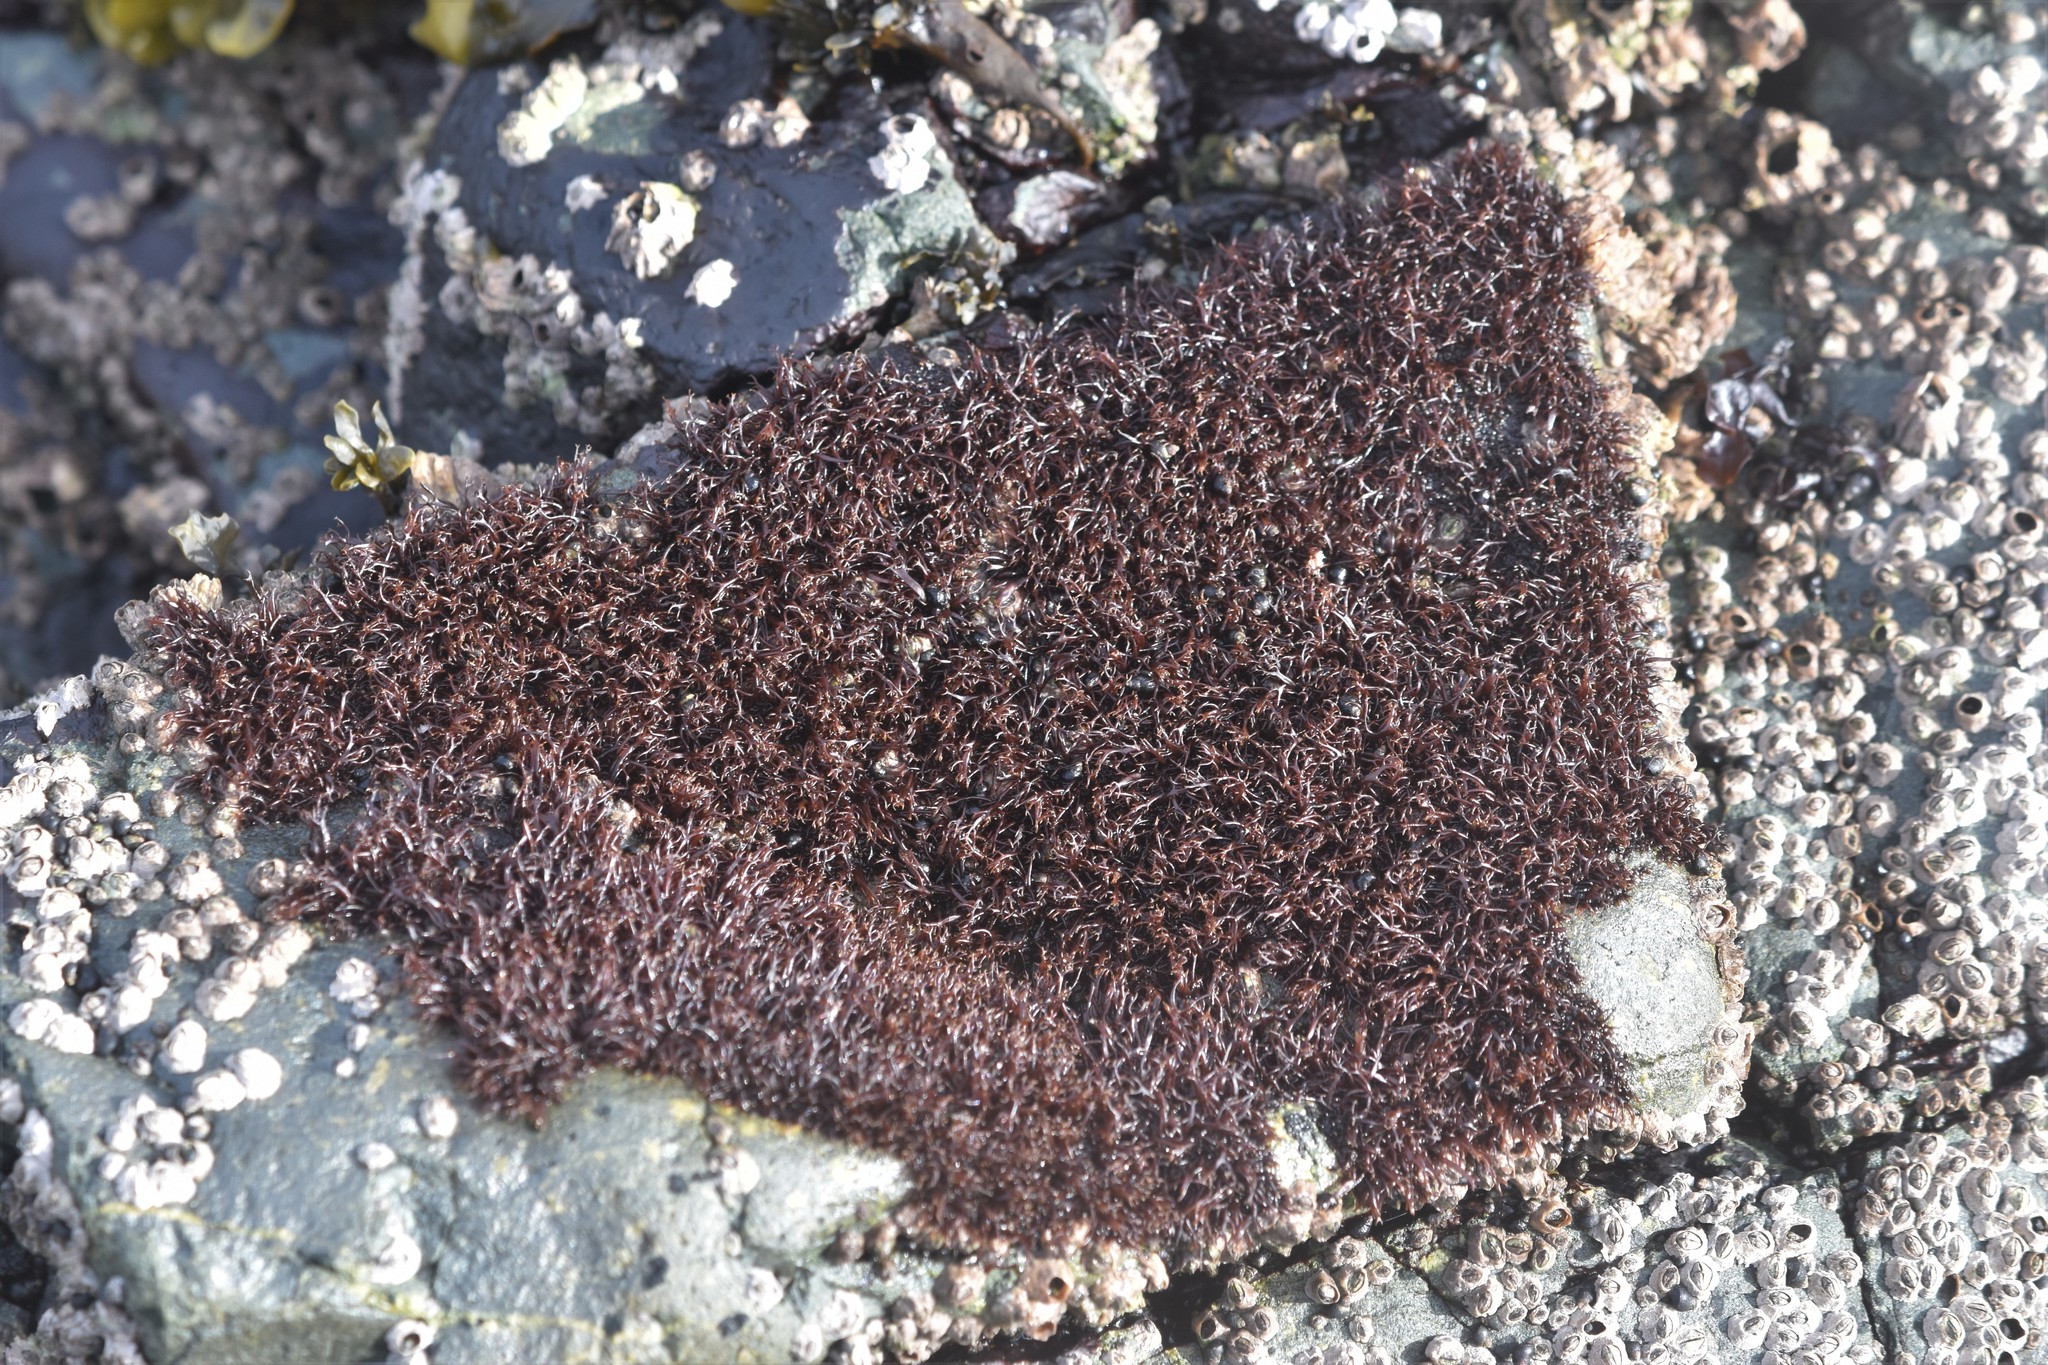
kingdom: Plantae
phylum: Rhodophyta
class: Florideophyceae
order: Gigartinales
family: Endocladiaceae
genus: Gloiopeltis
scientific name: Gloiopeltis furcata
